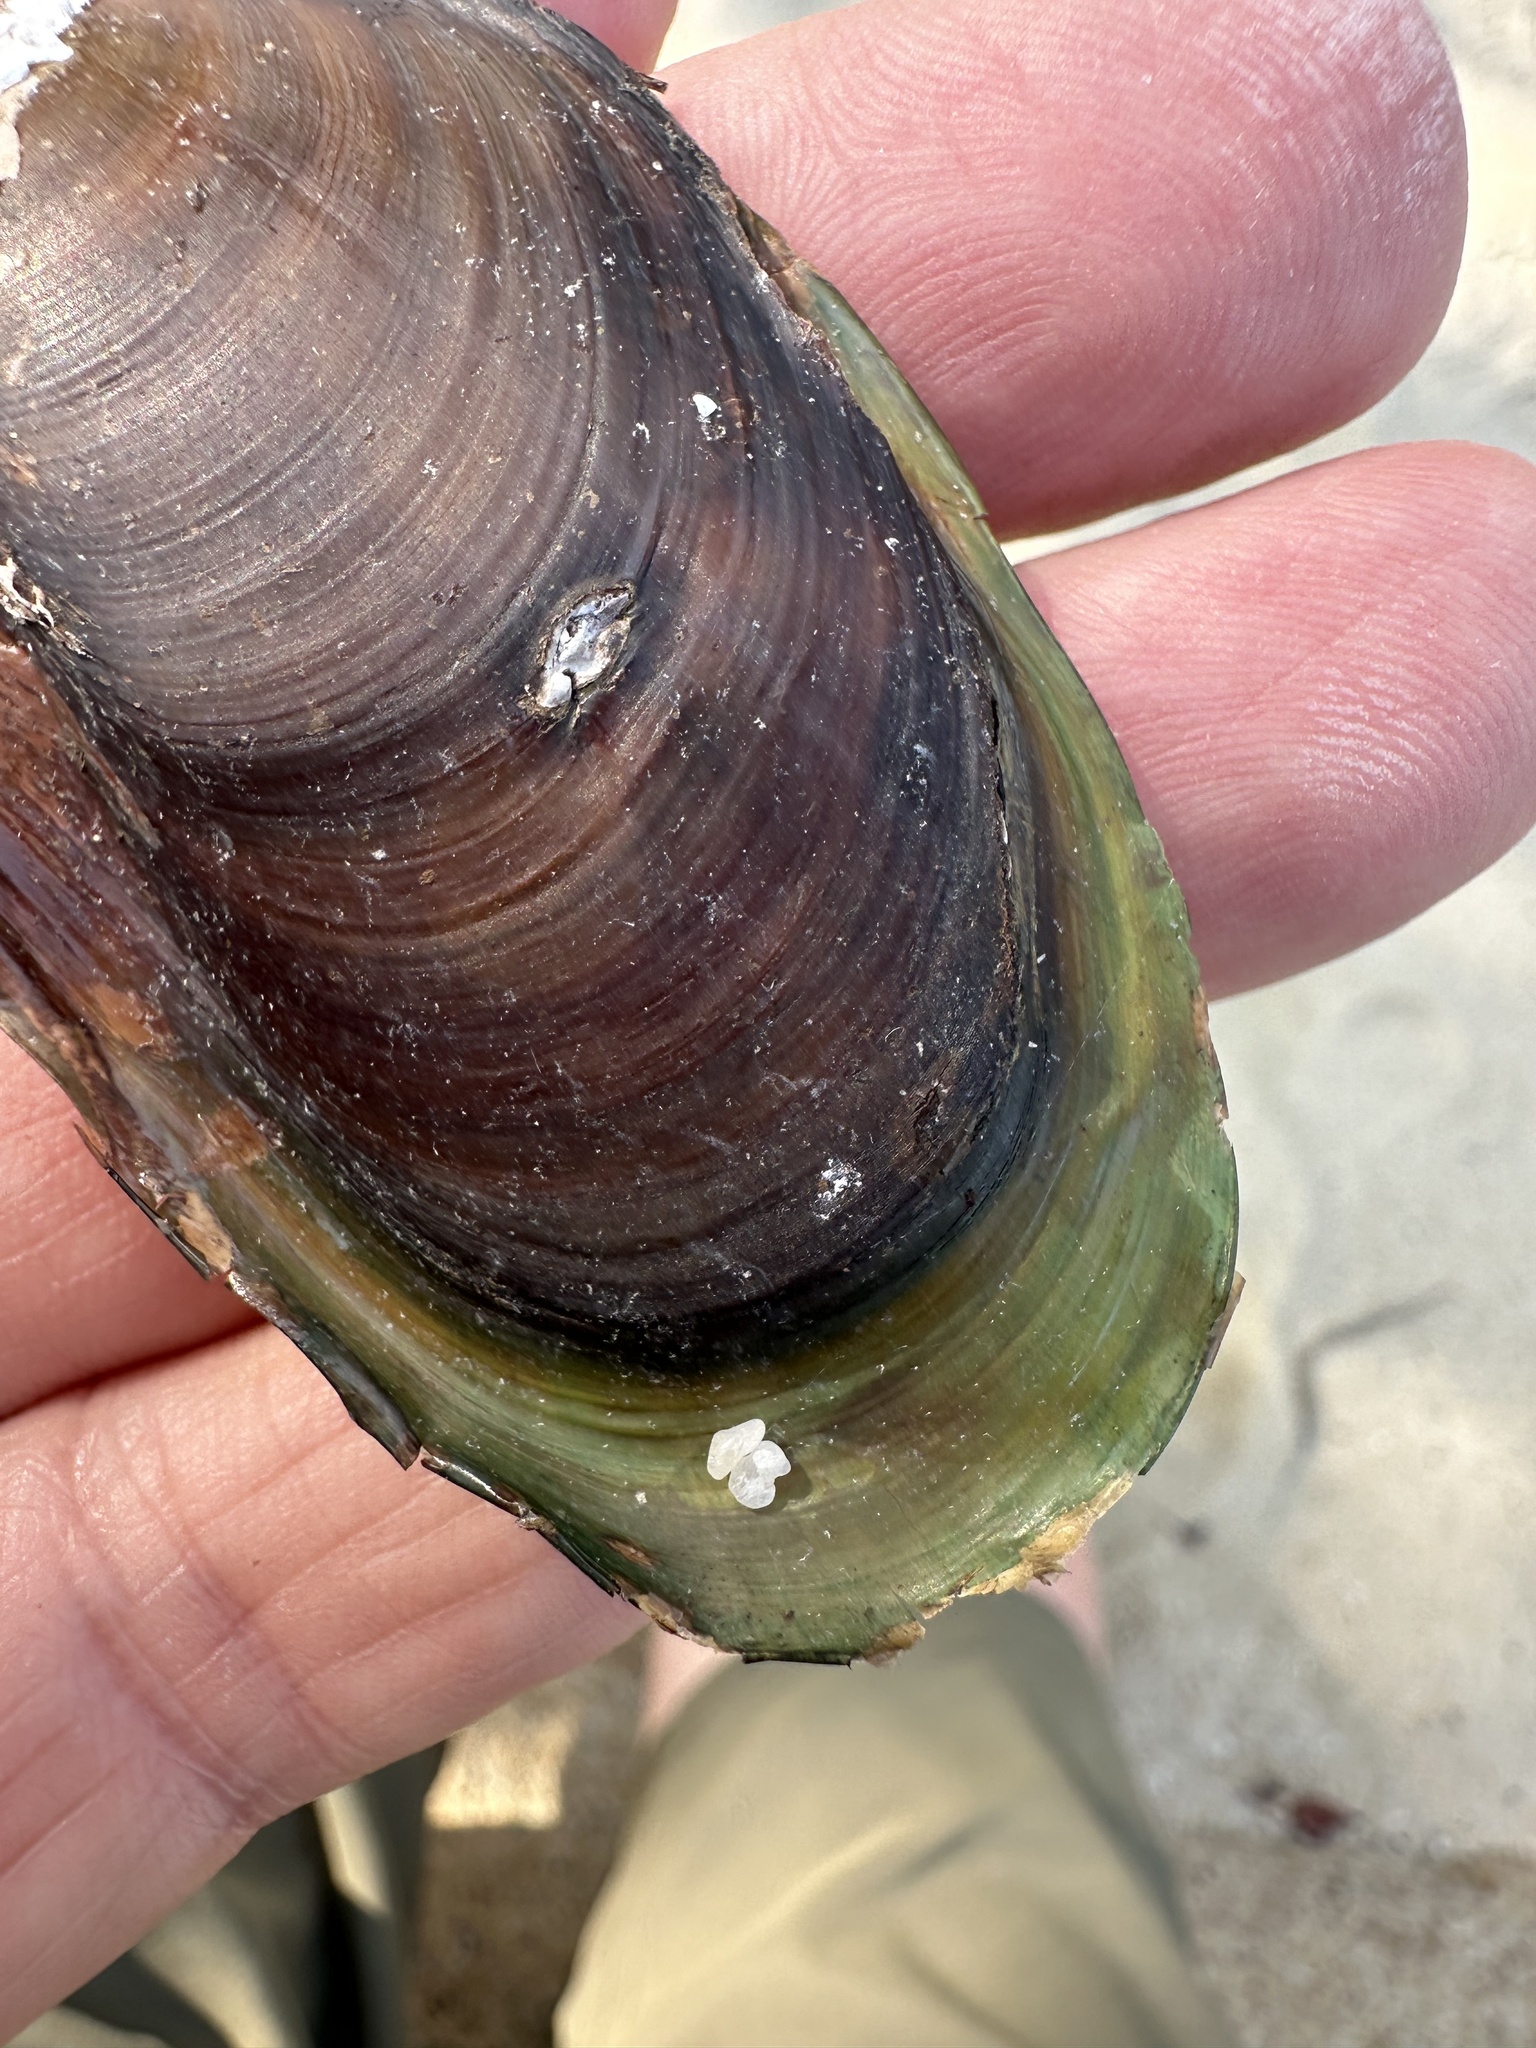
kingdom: Animalia
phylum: Mollusca
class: Bivalvia
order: Mytilida
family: Mytilidae
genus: Perna
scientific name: Perna viridis
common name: Green mussel
